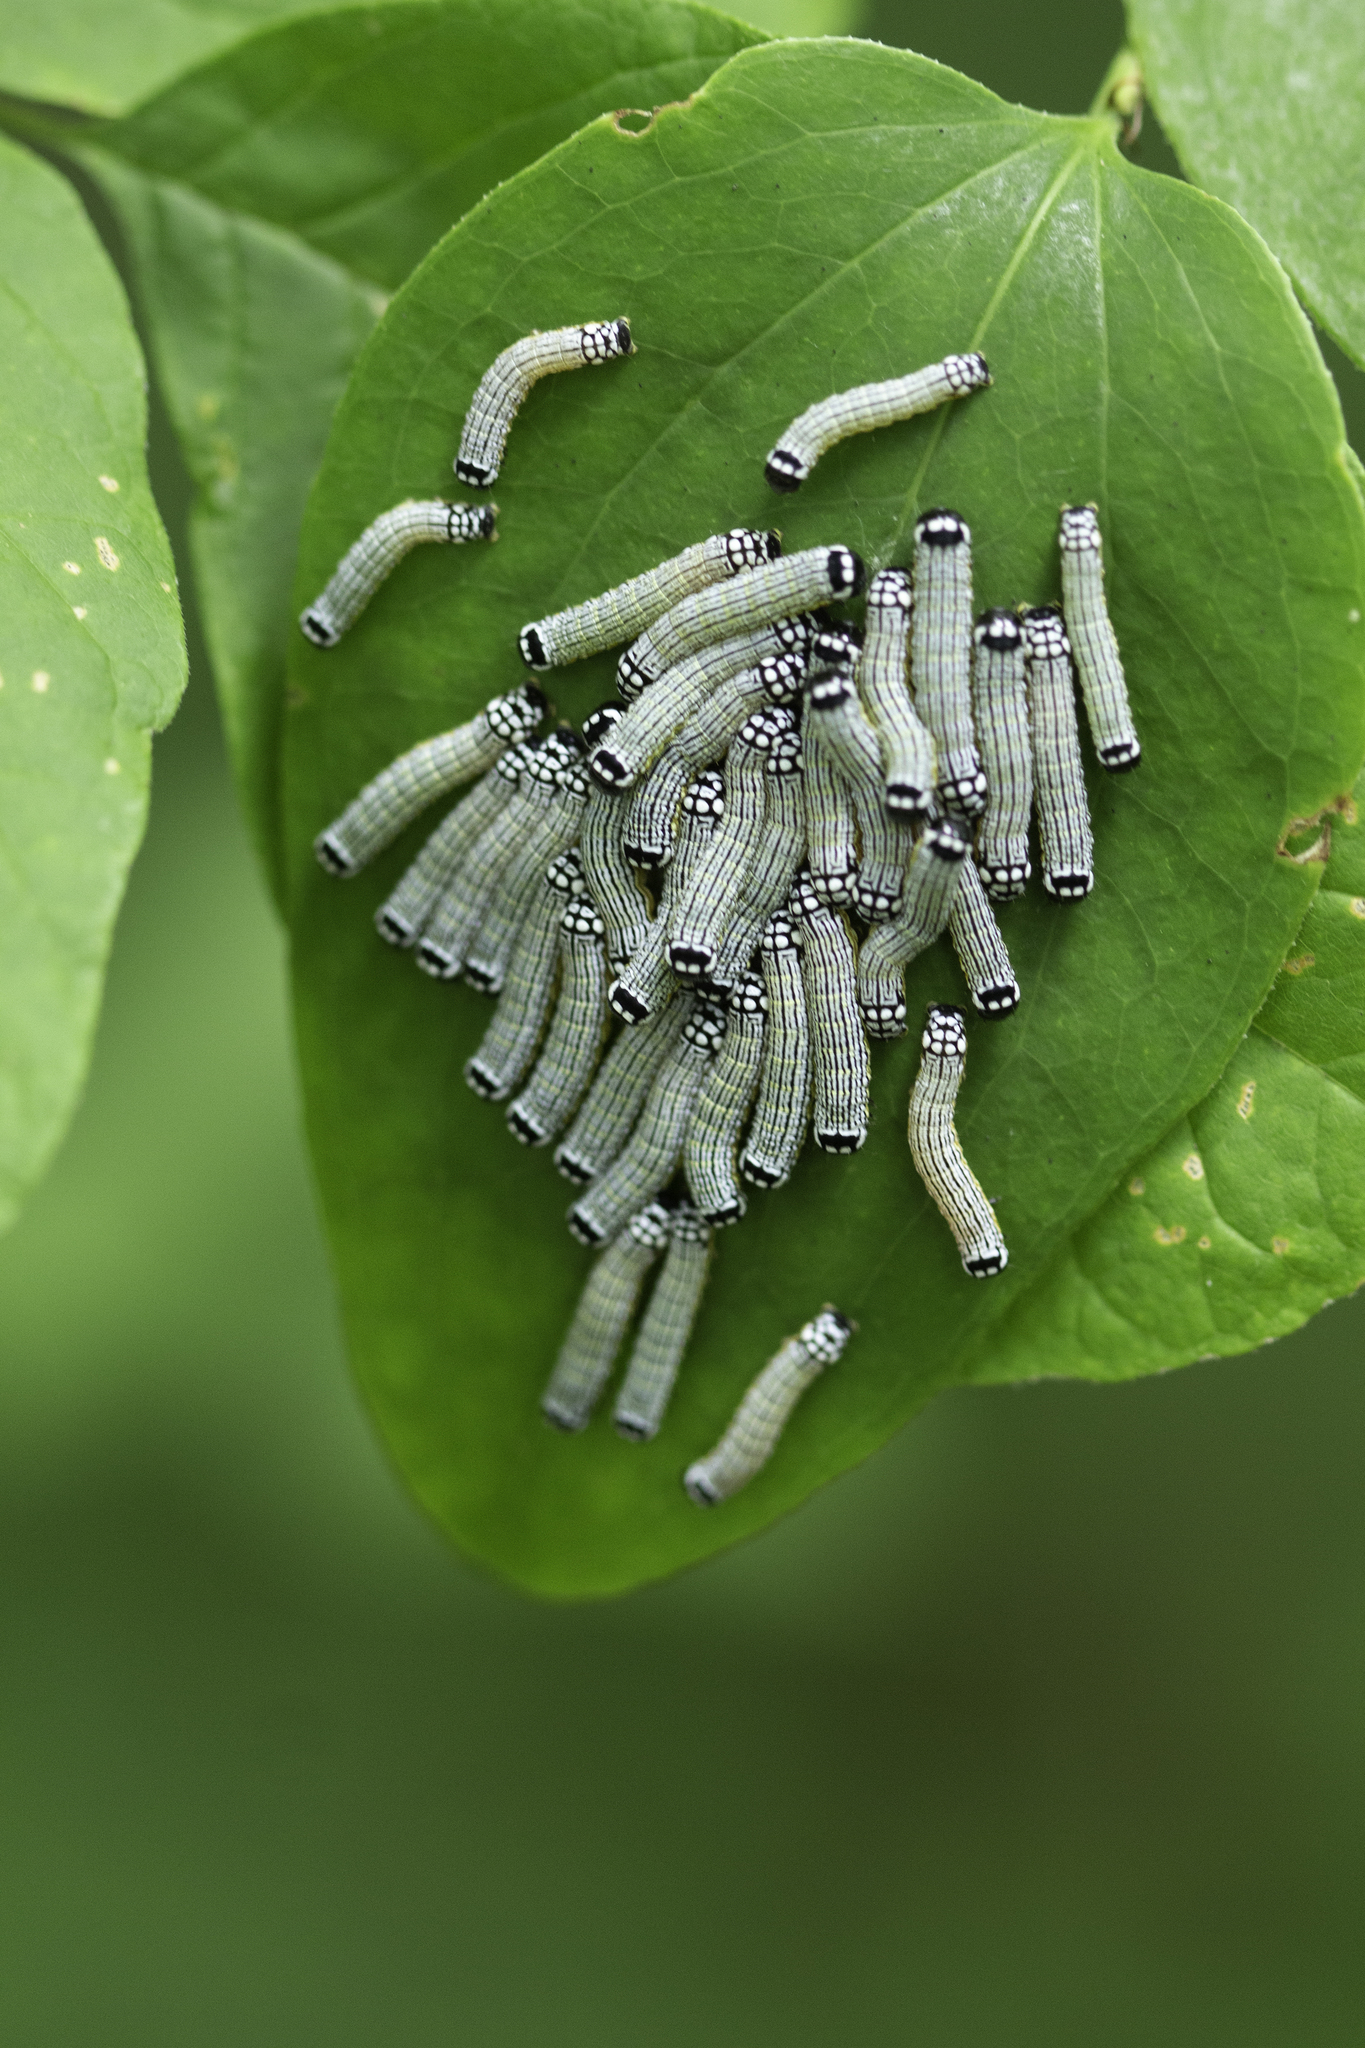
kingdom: Animalia
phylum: Arthropoda
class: Insecta
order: Lepidoptera
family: Noctuidae
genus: Phosphila
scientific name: Phosphila turbulenta
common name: Turbulent phosphila moth
